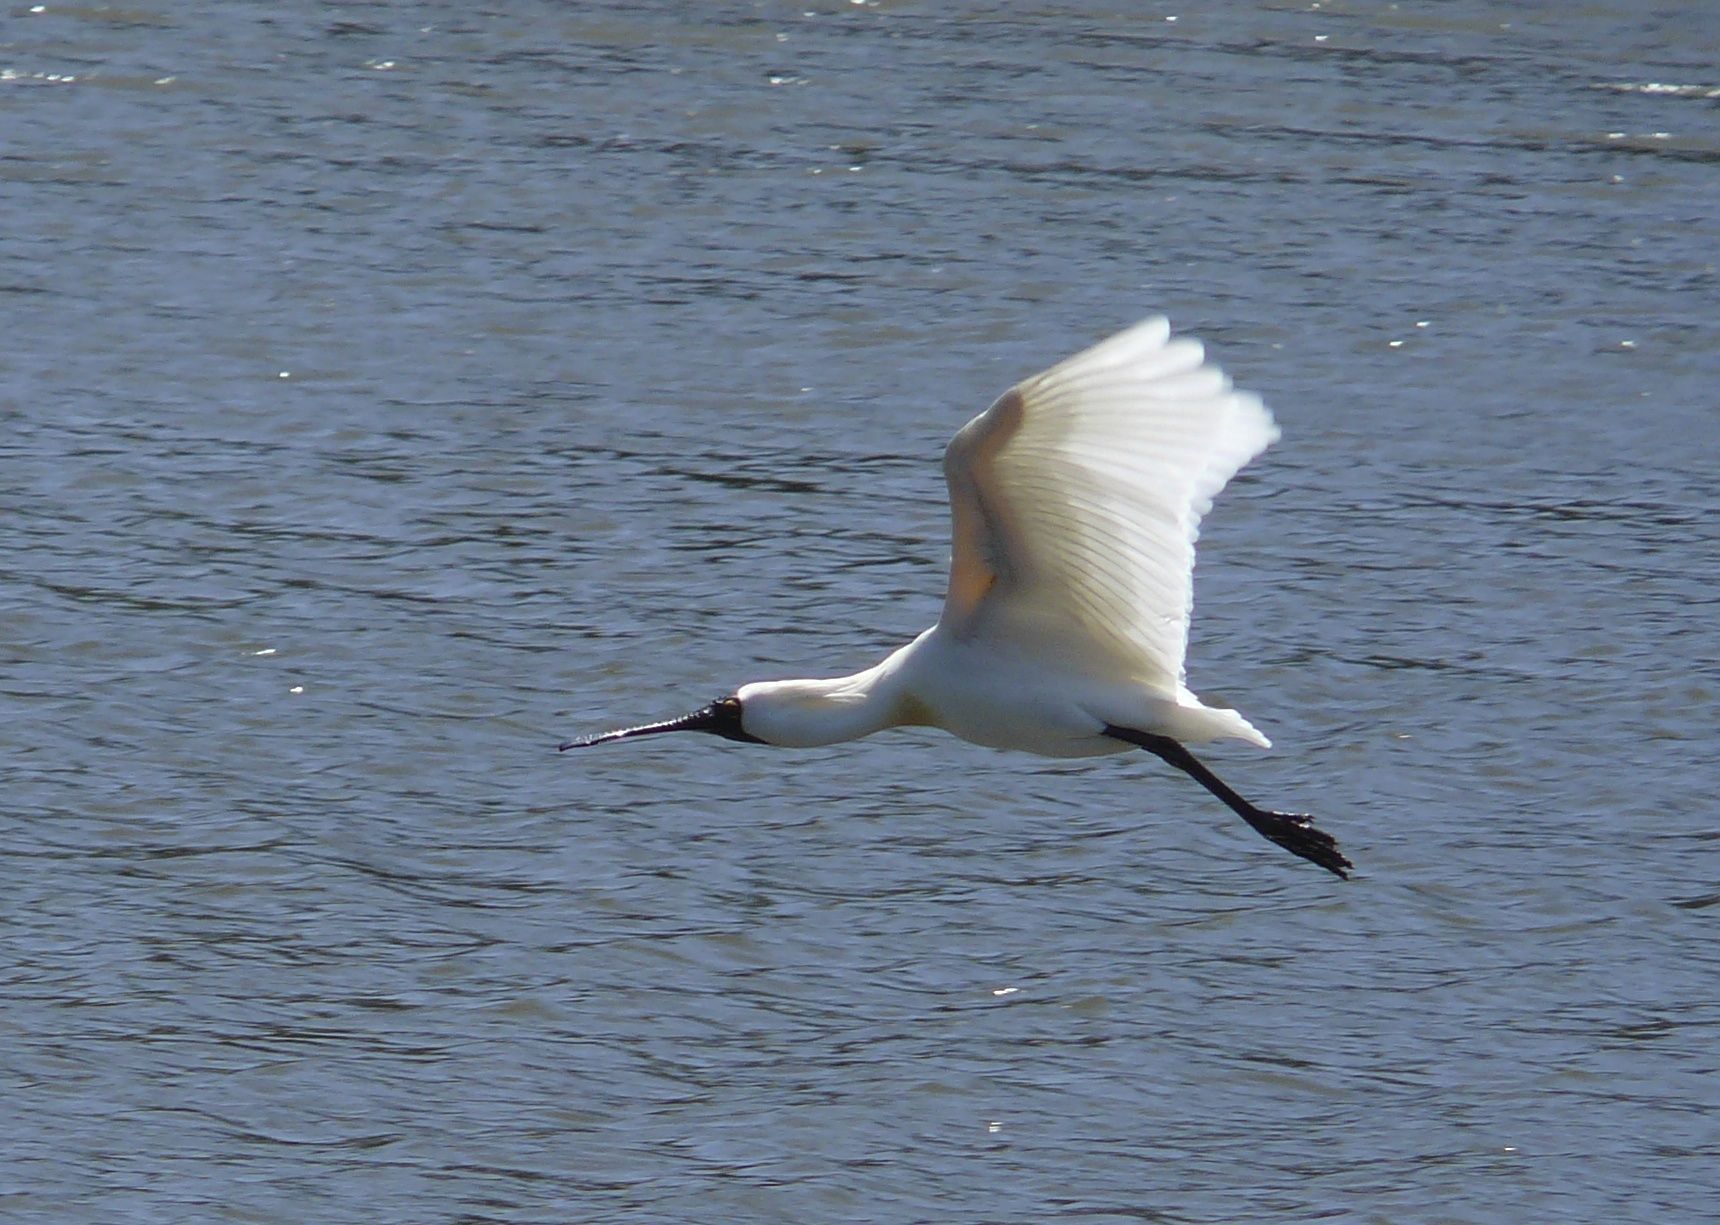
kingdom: Animalia
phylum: Chordata
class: Aves
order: Pelecaniformes
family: Threskiornithidae
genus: Platalea
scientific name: Platalea regia
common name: Royal spoonbill
